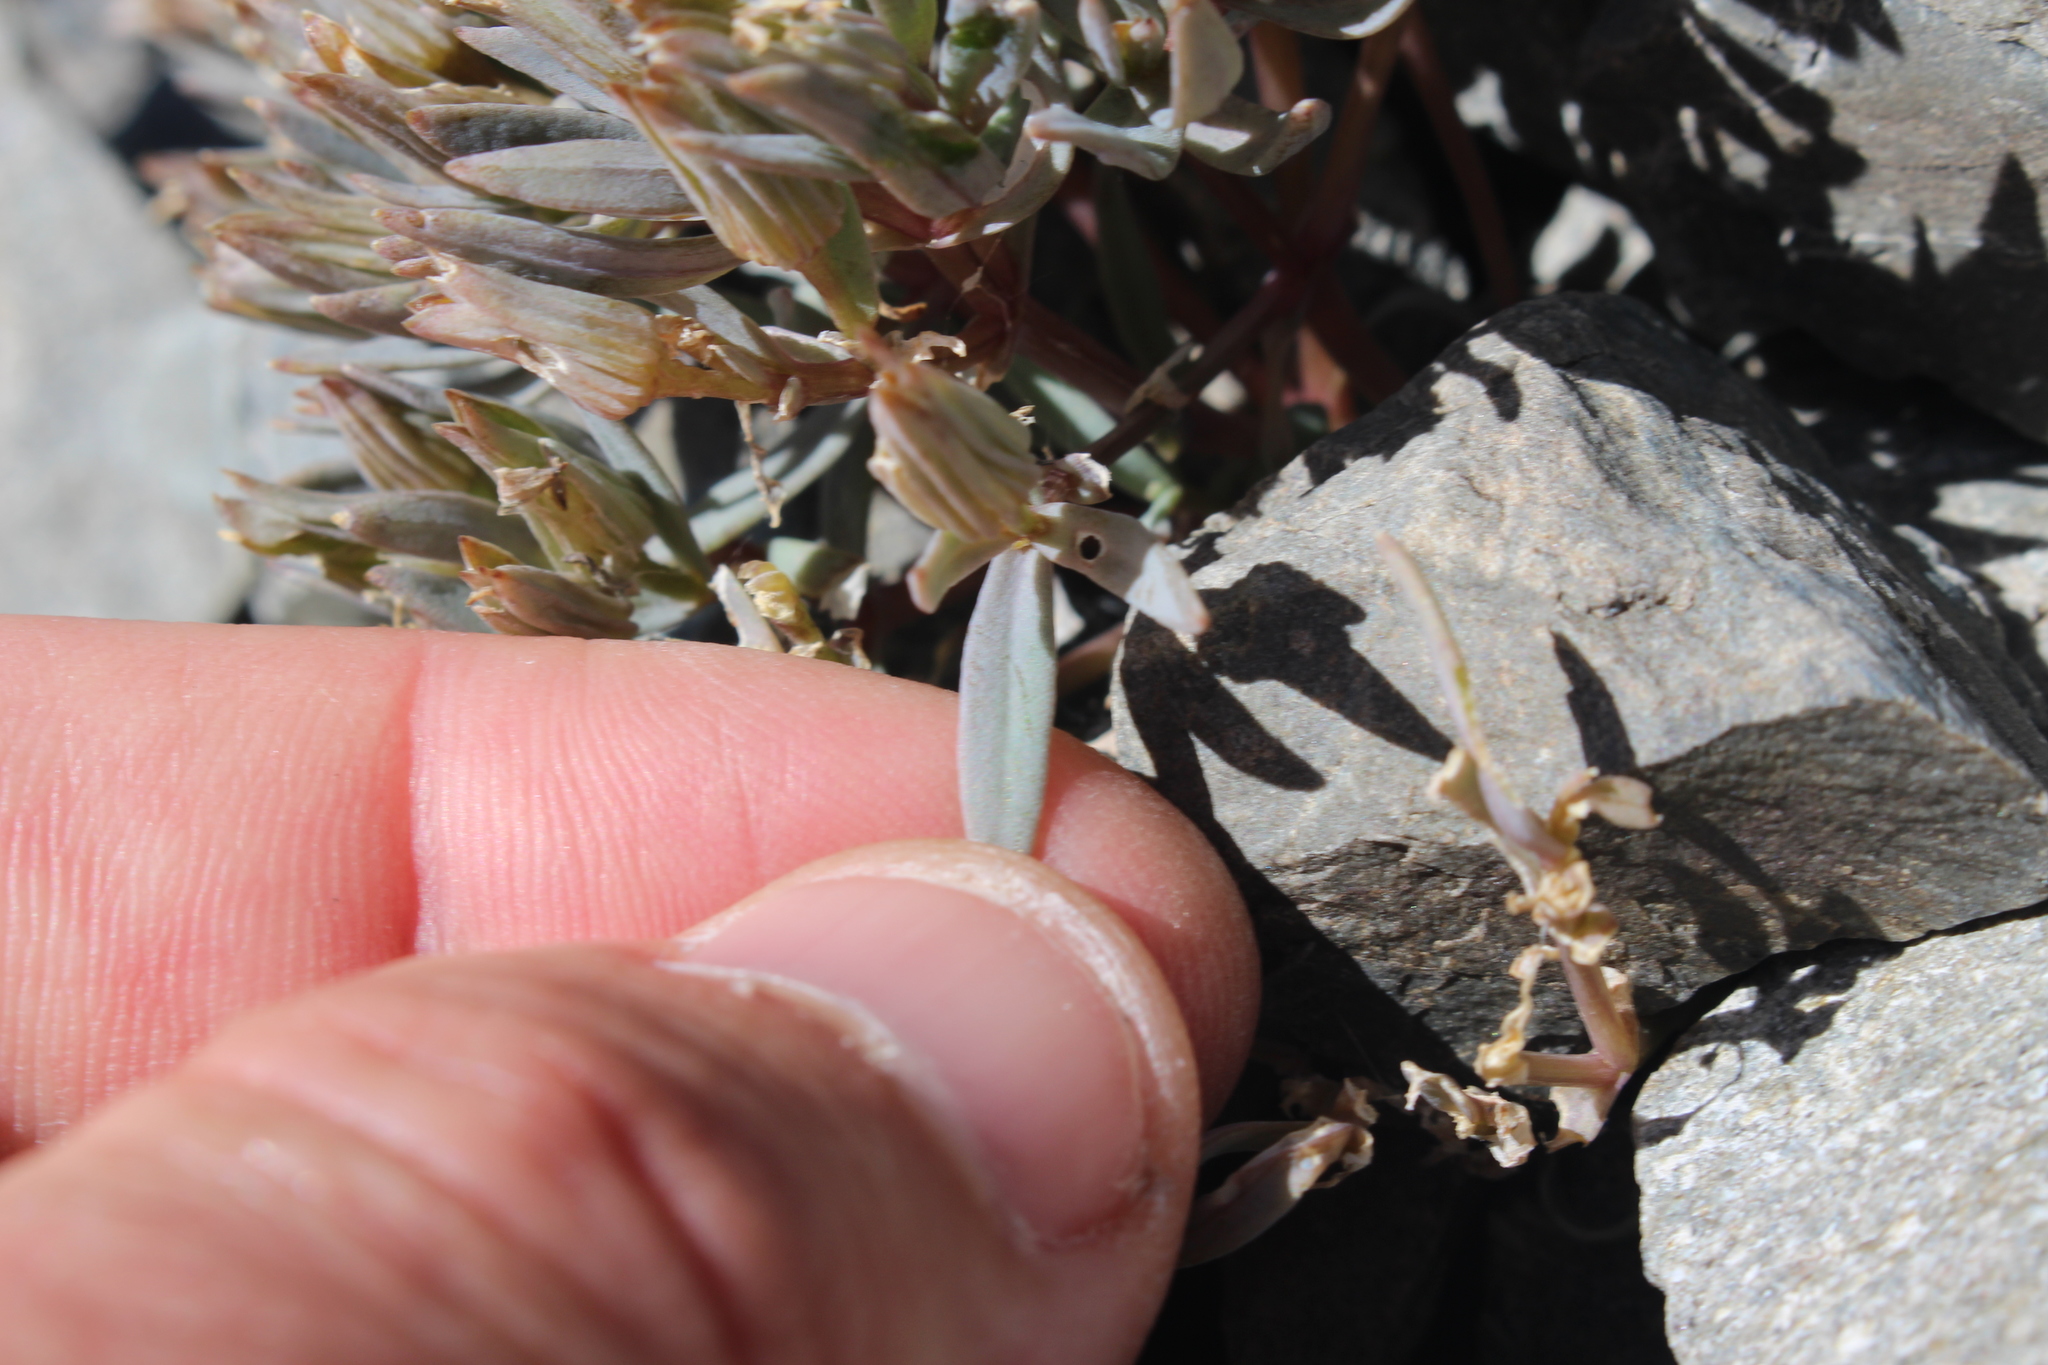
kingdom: Plantae
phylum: Tracheophyta
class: Magnoliopsida
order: Caryophyllales
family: Caryophyllaceae
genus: Stellaria
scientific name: Stellaria roughii
